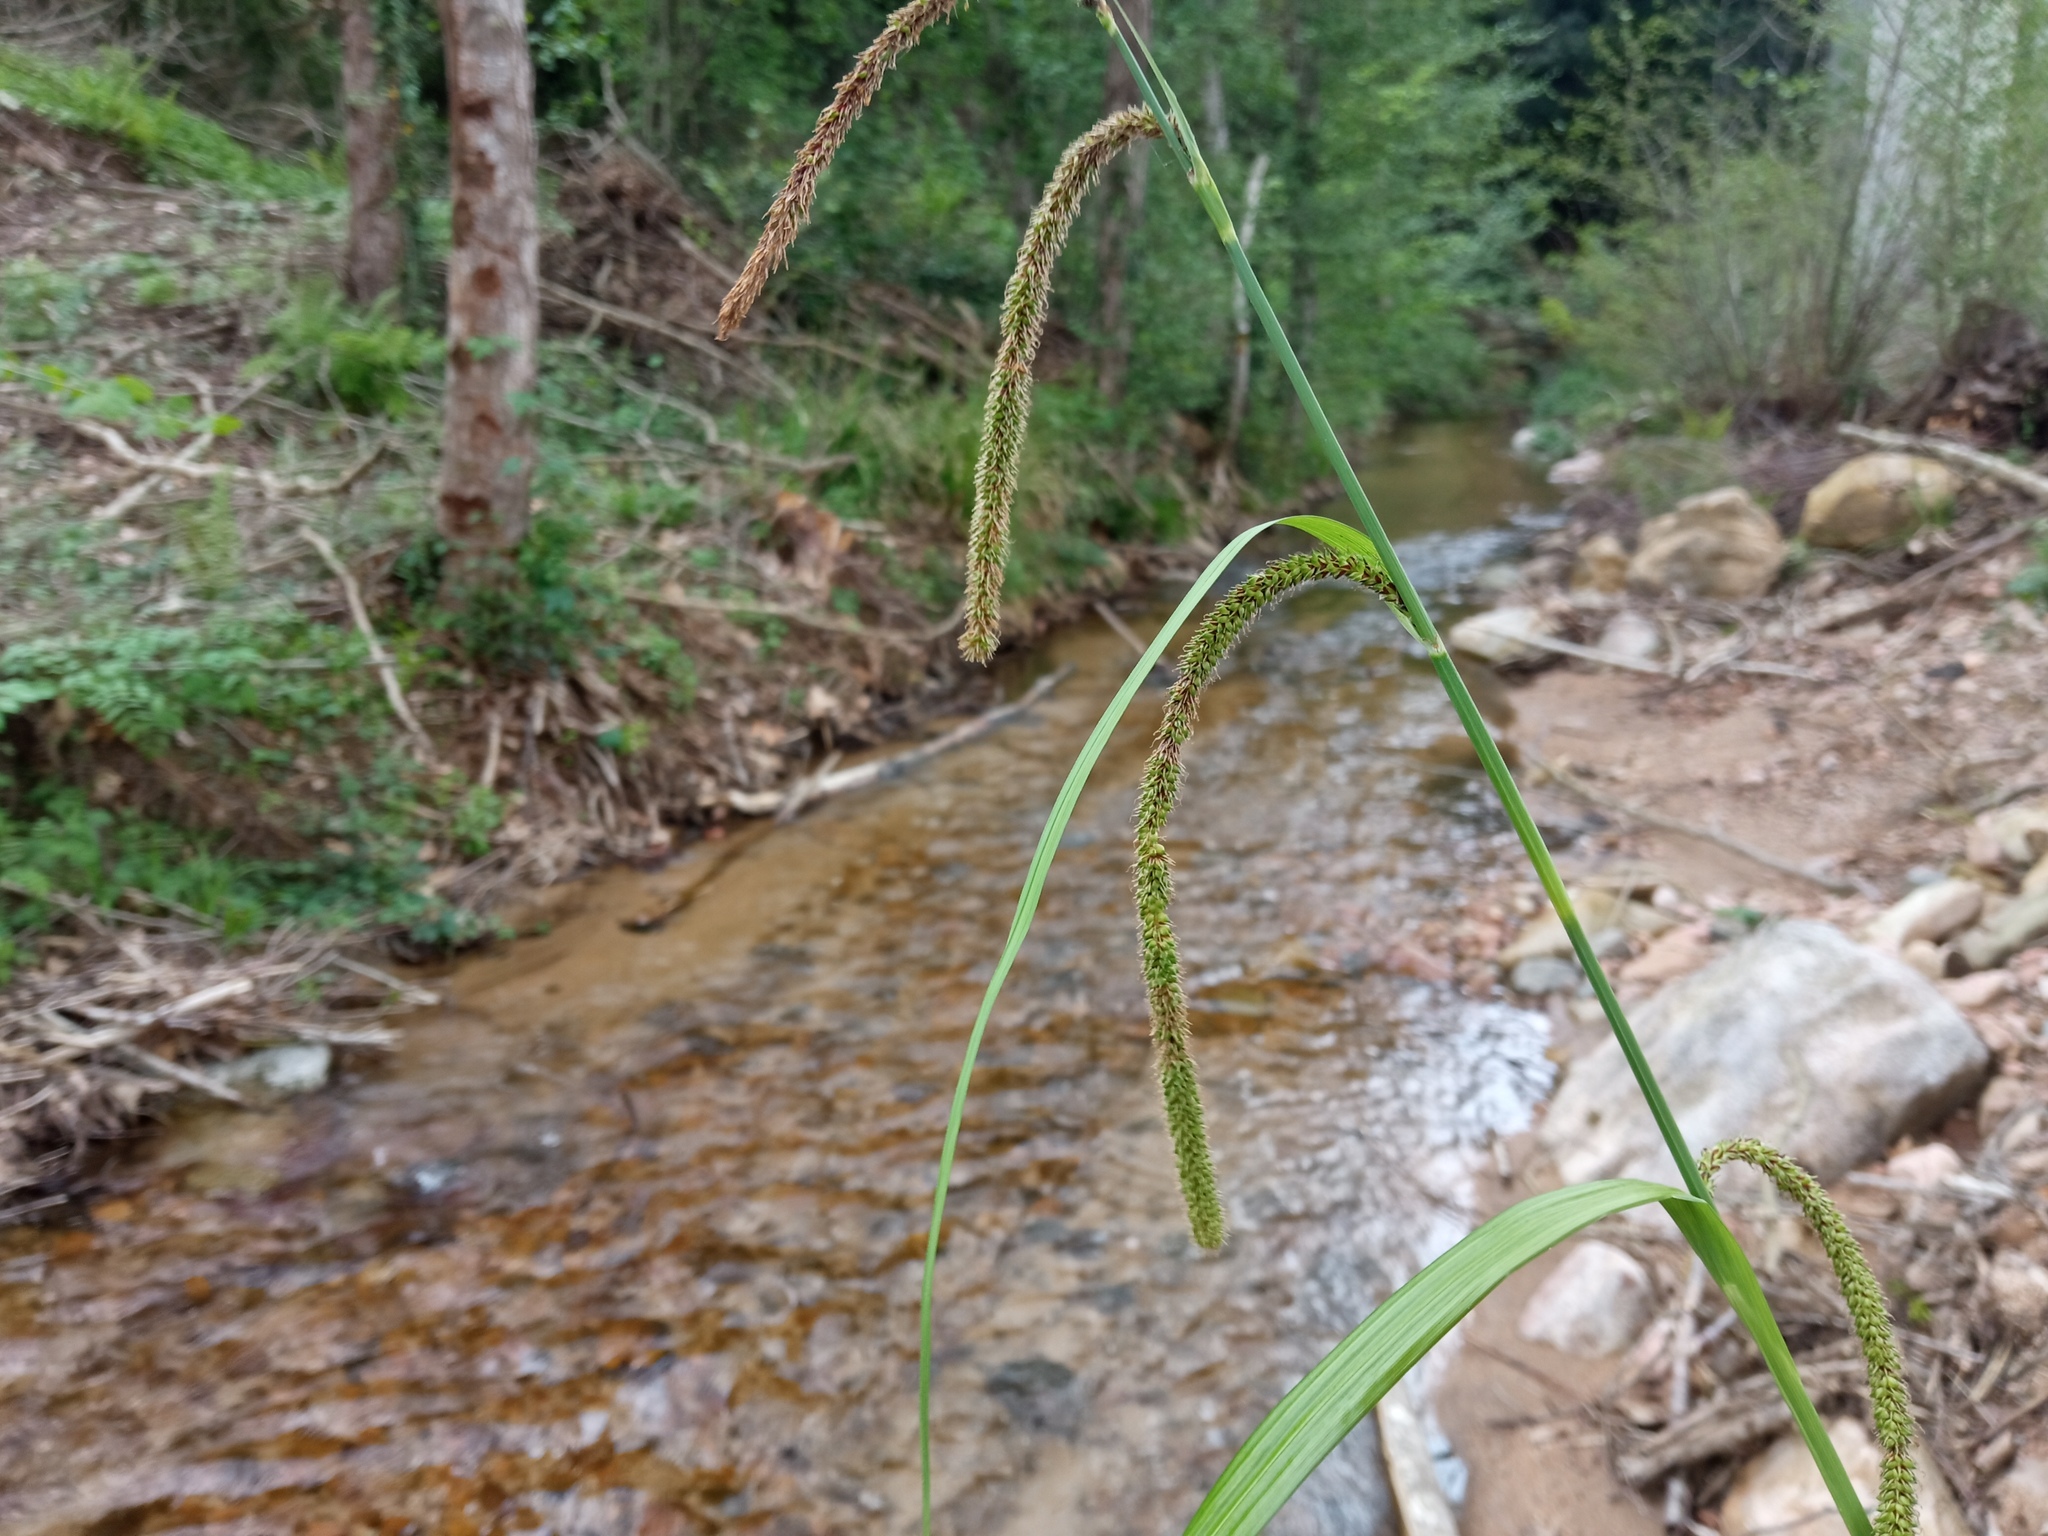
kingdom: Plantae
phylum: Tracheophyta
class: Liliopsida
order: Poales
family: Cyperaceae
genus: Carex
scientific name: Carex pendula
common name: Pendulous sedge
